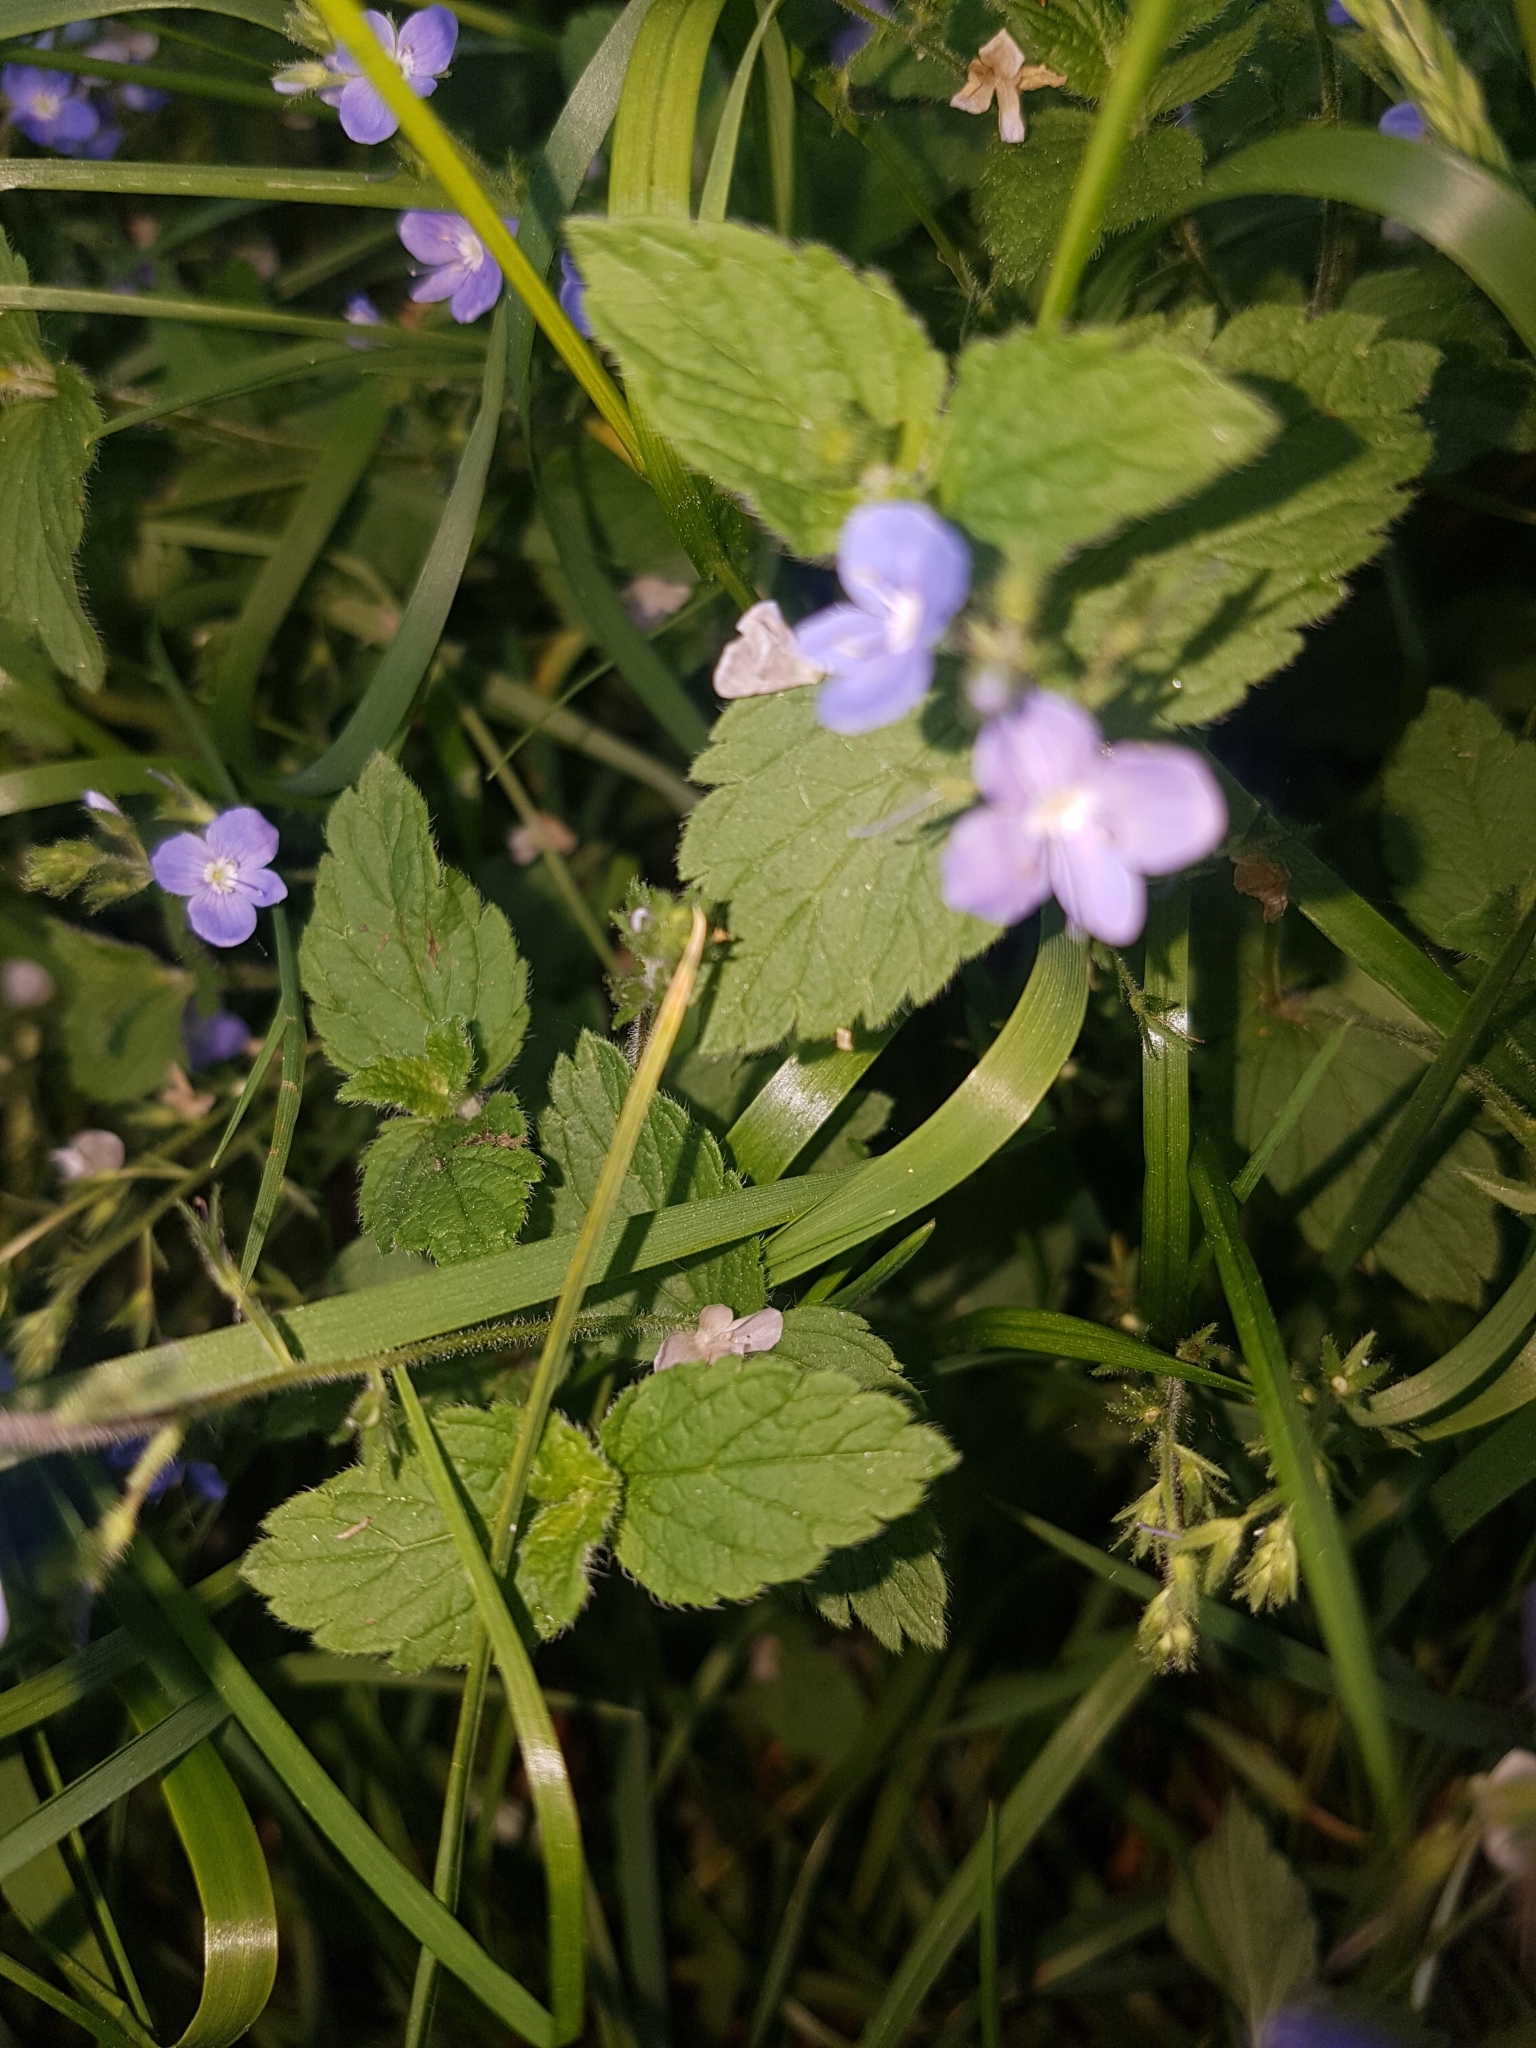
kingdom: Plantae
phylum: Tracheophyta
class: Magnoliopsida
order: Lamiales
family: Plantaginaceae
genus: Veronica
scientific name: Veronica chamaedrys
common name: Germander speedwell
